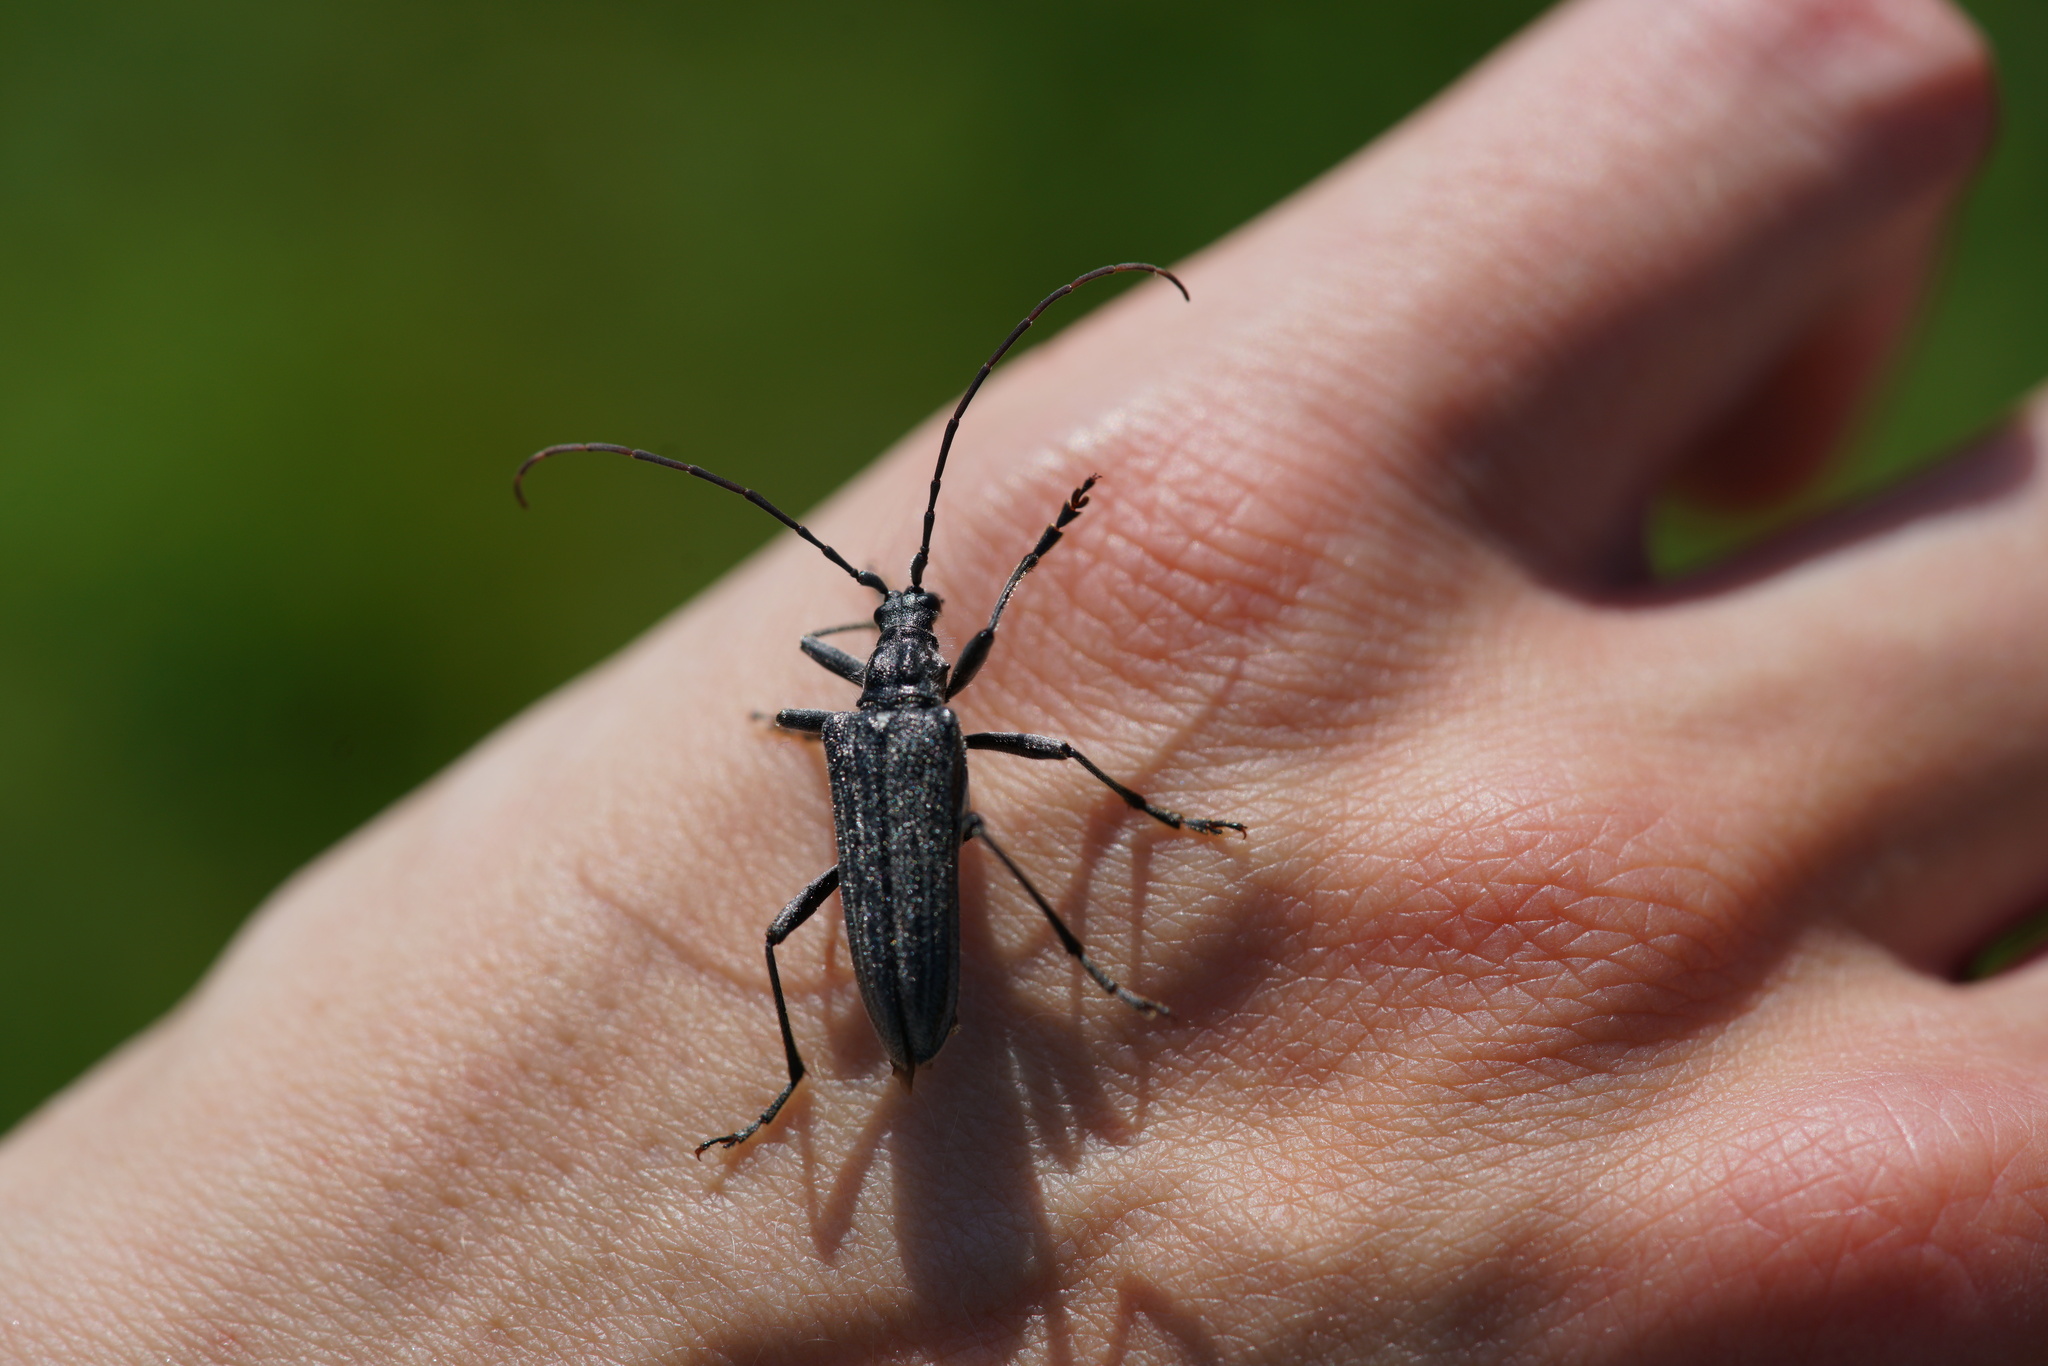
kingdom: Animalia
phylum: Arthropoda
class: Insecta
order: Coleoptera
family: Cerambycidae
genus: Oxymirus
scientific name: Oxymirus cursor
